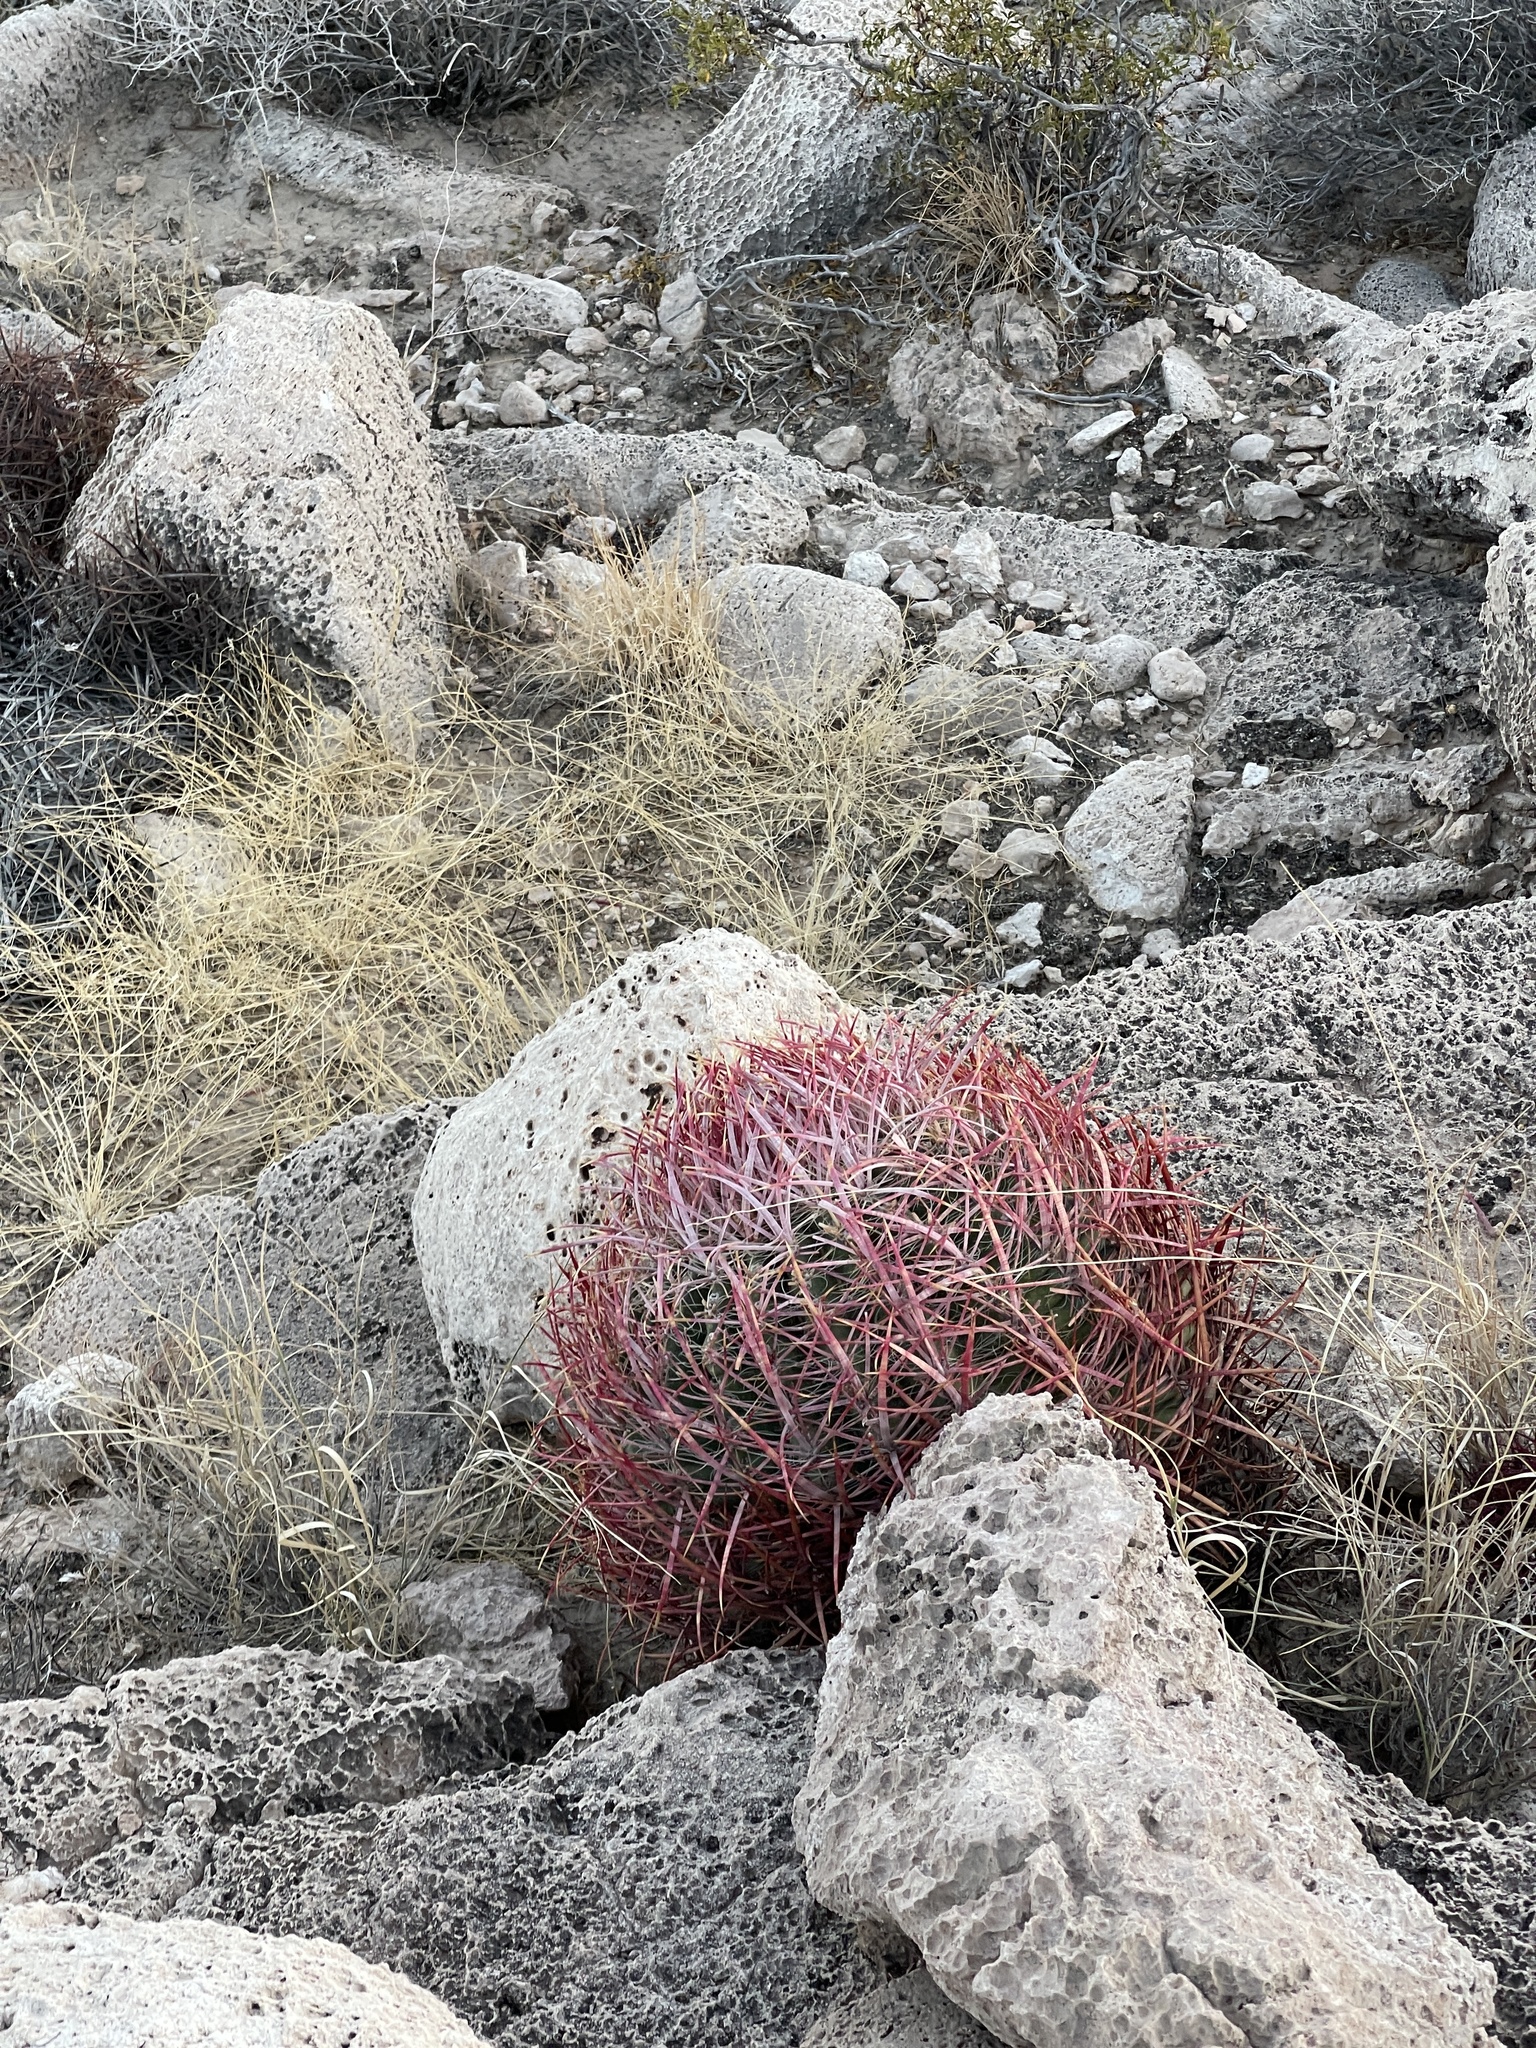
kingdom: Plantae
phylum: Tracheophyta
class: Magnoliopsida
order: Caryophyllales
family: Cactaceae
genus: Ferocactus
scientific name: Ferocactus cylindraceus
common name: California barrel cactus
